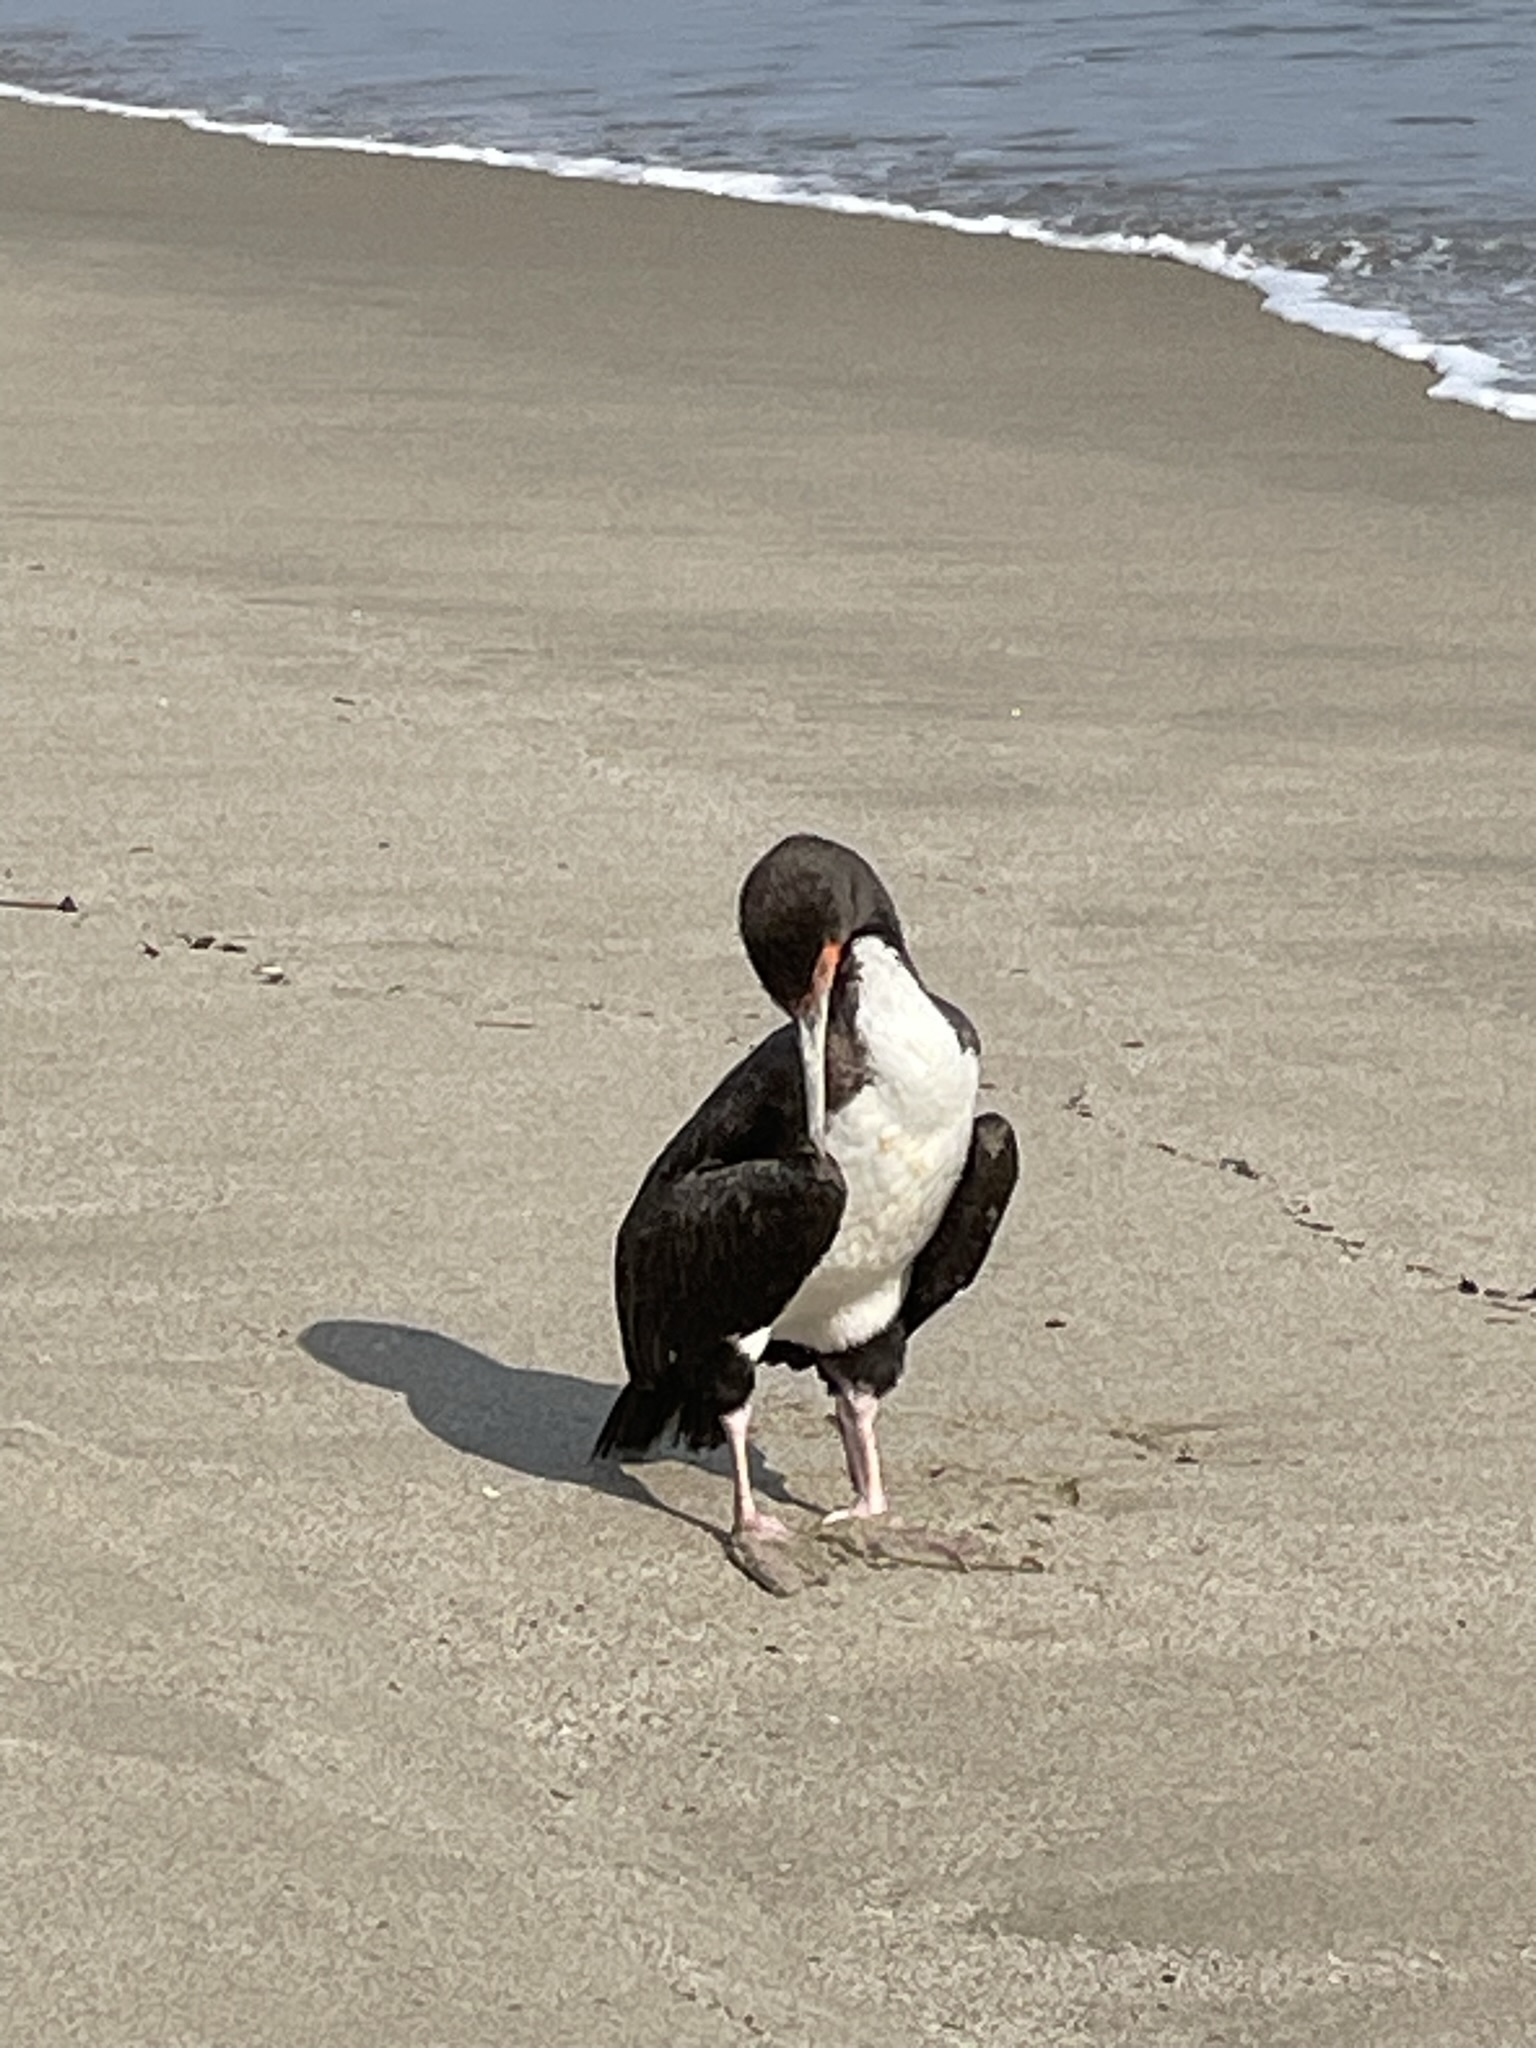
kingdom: Animalia
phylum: Chordata
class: Aves
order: Suliformes
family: Phalacrocoracidae
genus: Leucocarbo
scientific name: Leucocarbo bougainvillii
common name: Guanay cormorant
